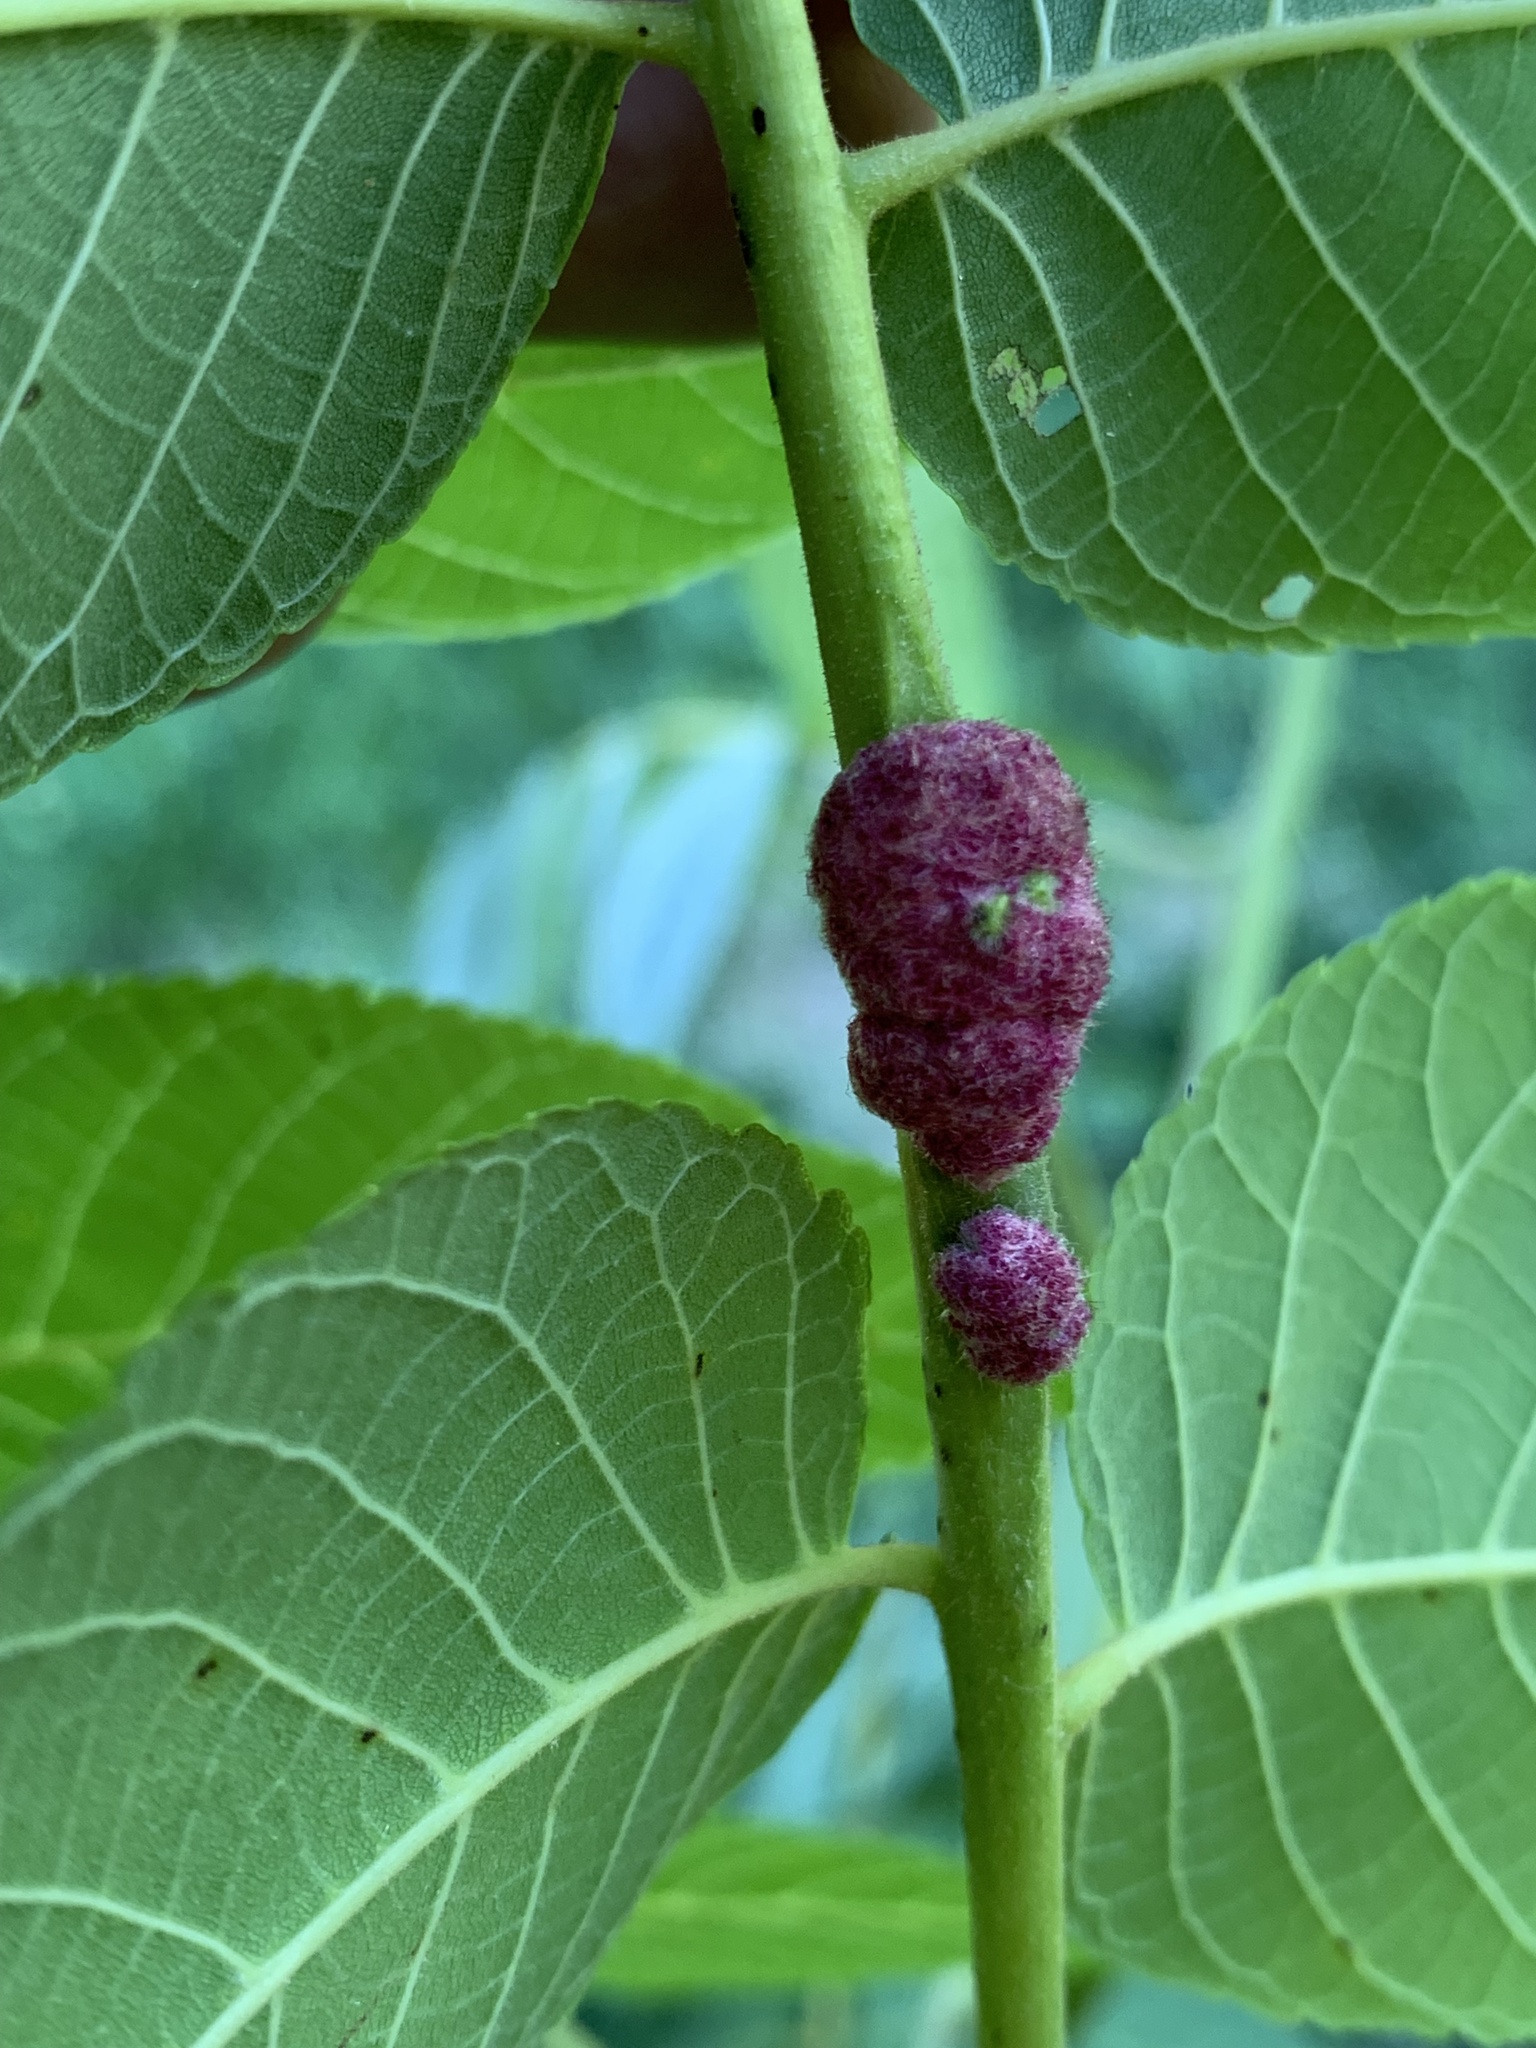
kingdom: Animalia
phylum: Arthropoda
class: Arachnida
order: Trombidiformes
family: Eriophyidae
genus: Aceria
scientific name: Aceria
